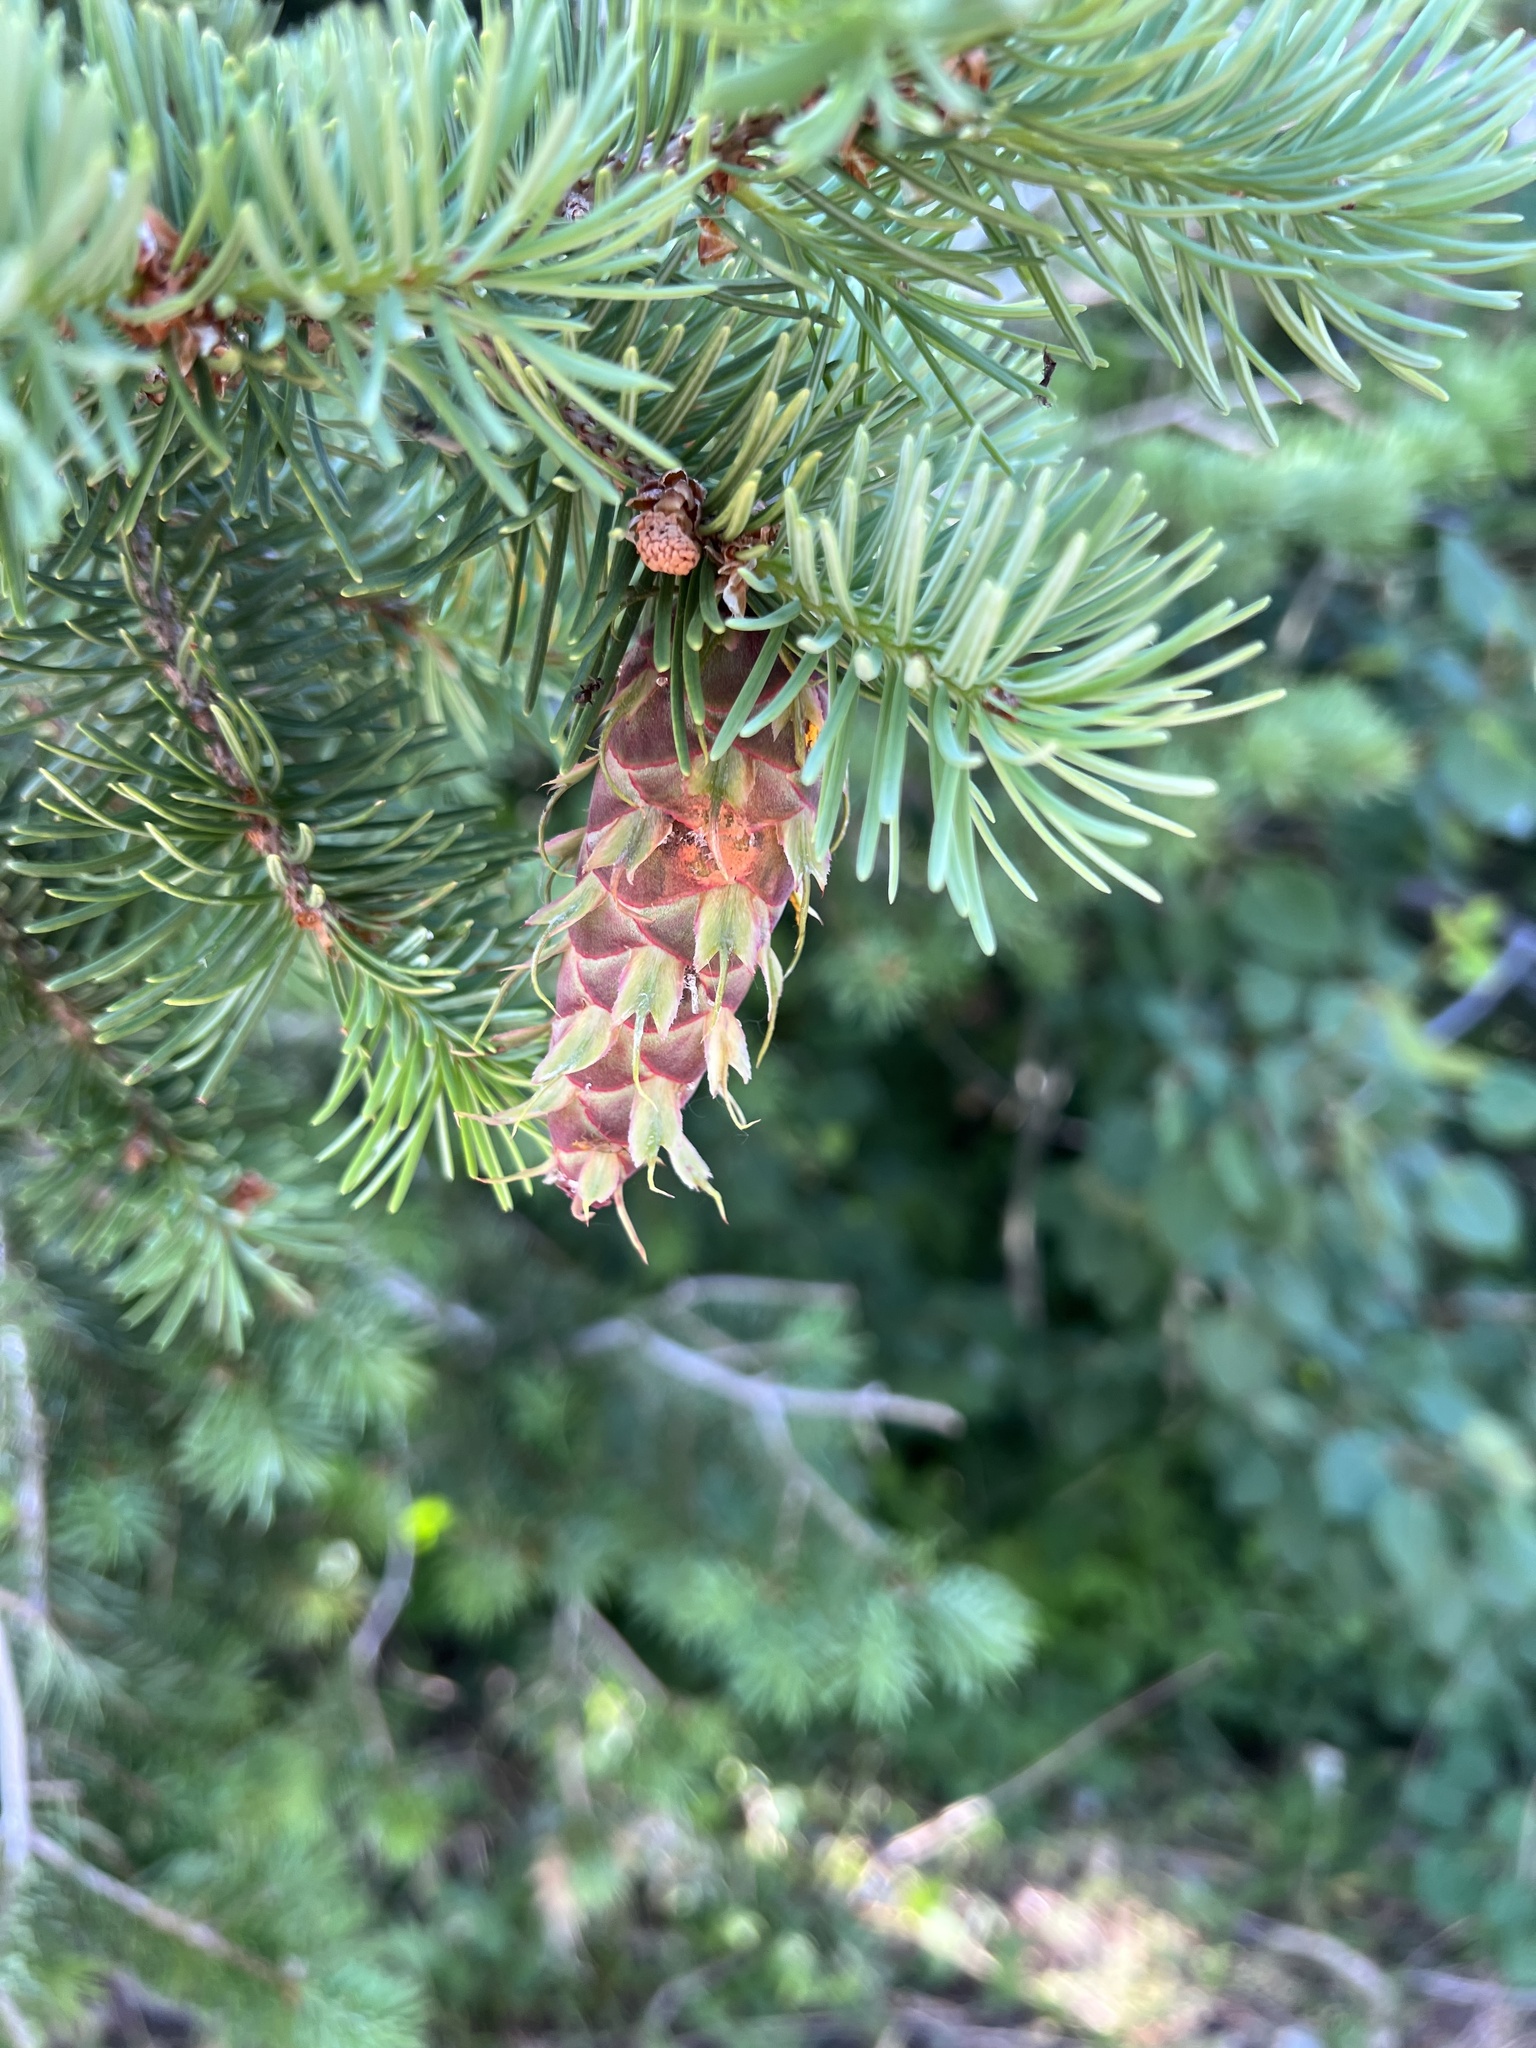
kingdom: Plantae
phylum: Tracheophyta
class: Pinopsida
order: Pinales
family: Pinaceae
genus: Pseudotsuga
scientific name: Pseudotsuga menziesii
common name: Douglas fir
